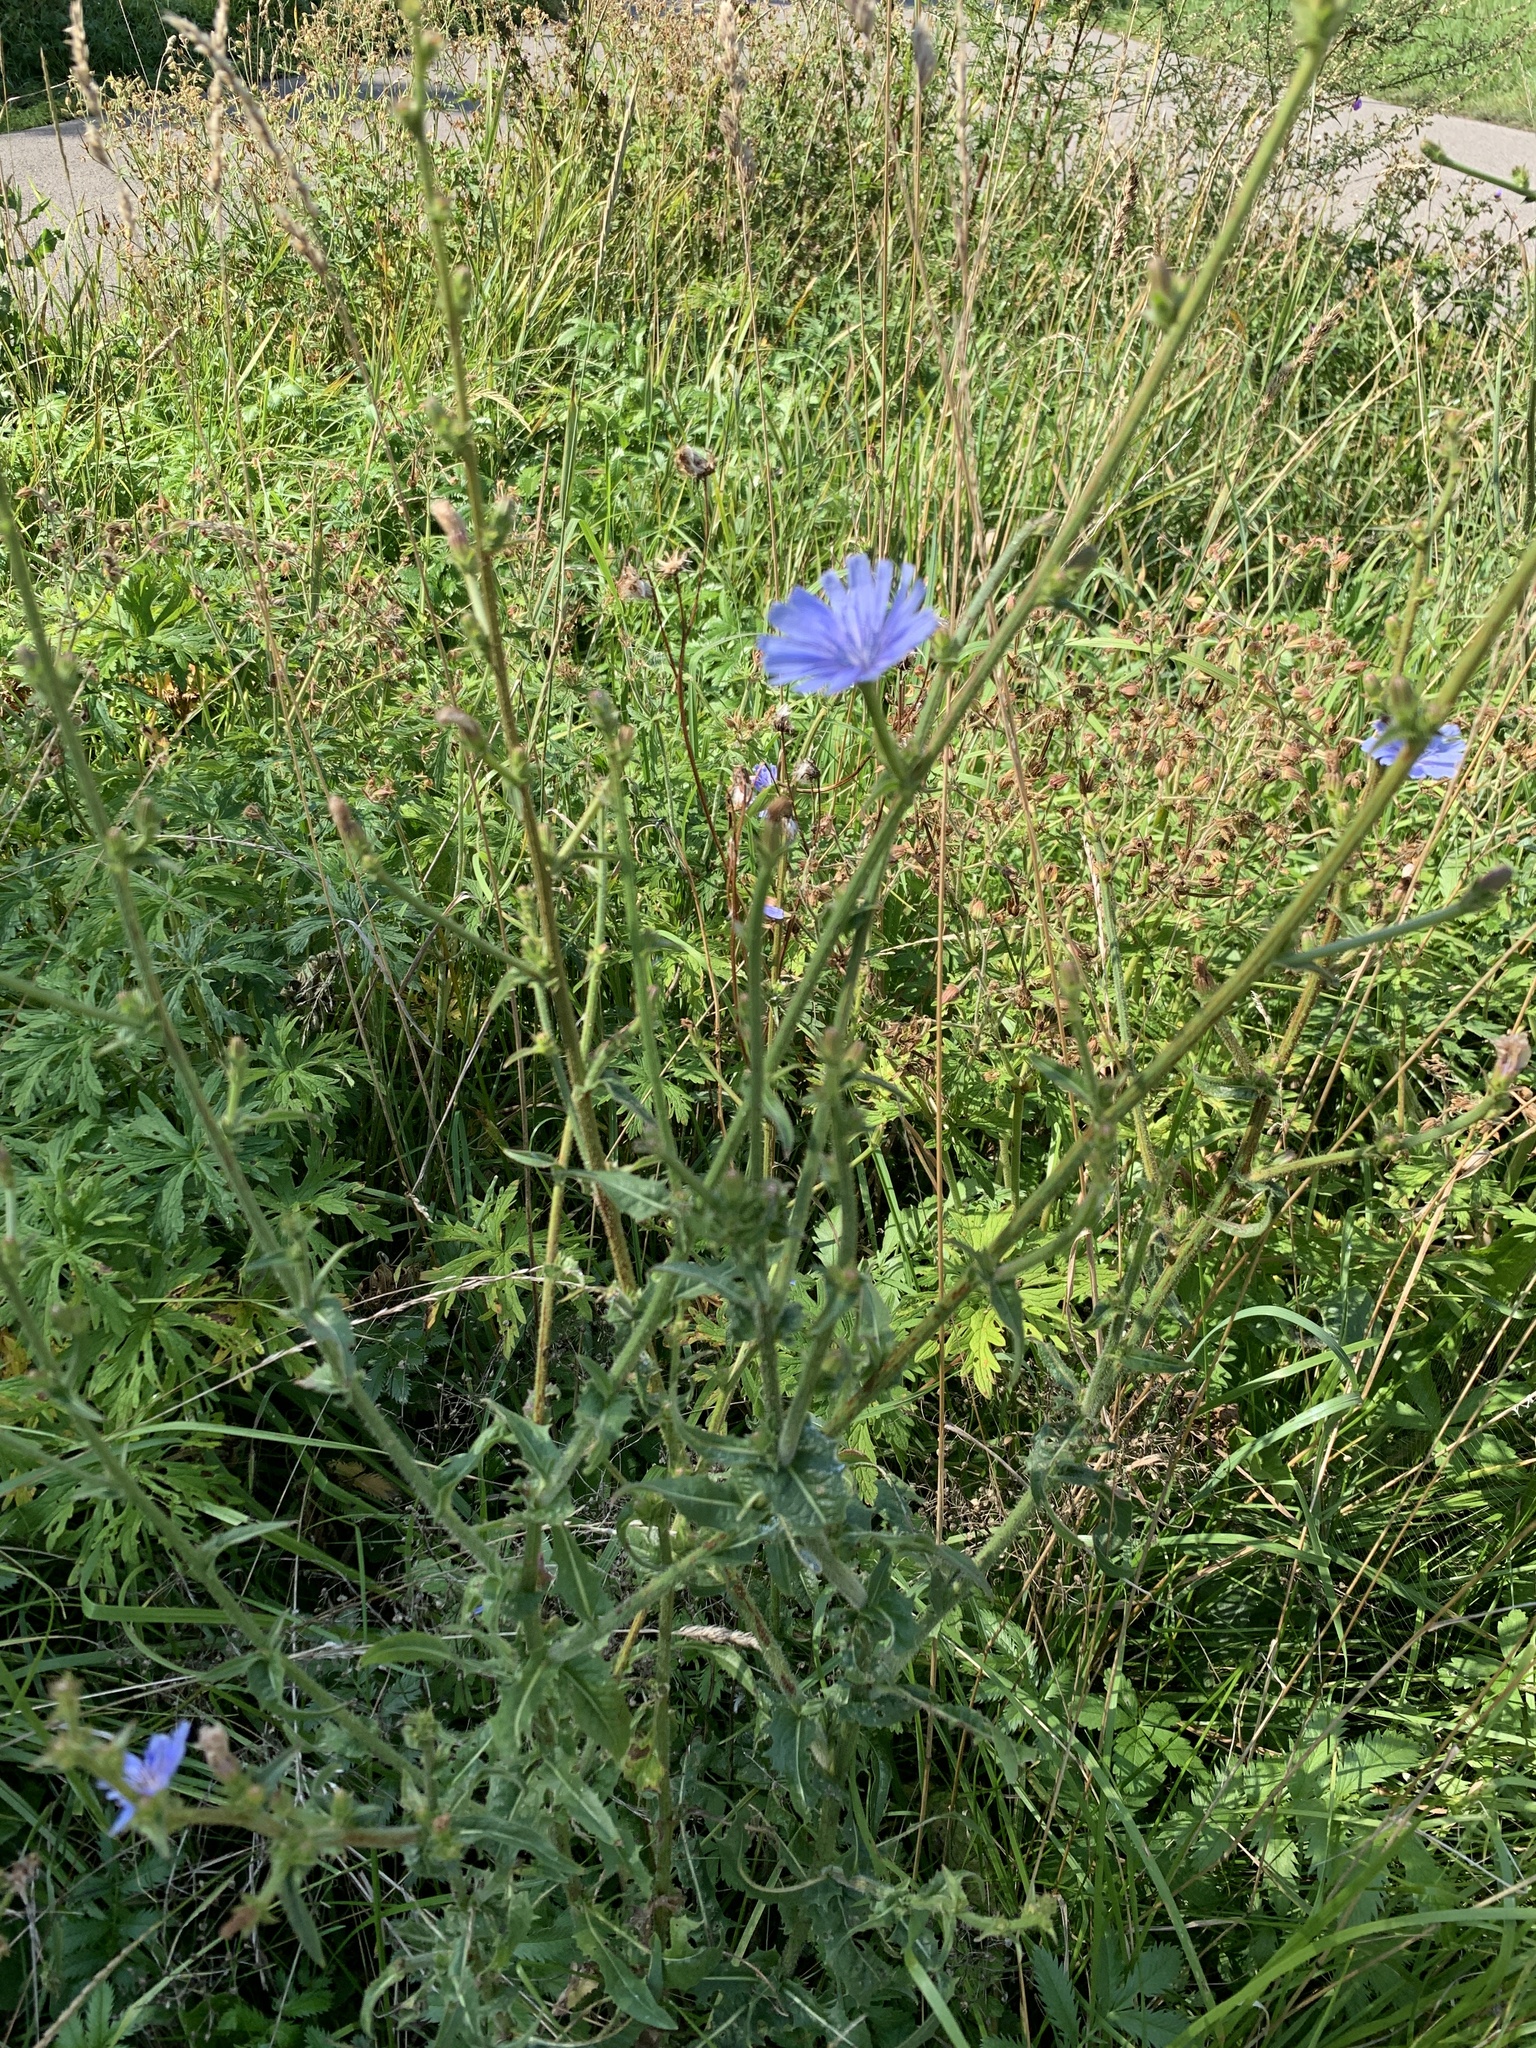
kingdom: Plantae
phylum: Tracheophyta
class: Magnoliopsida
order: Asterales
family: Asteraceae
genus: Cichorium
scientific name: Cichorium intybus
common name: Chicory
